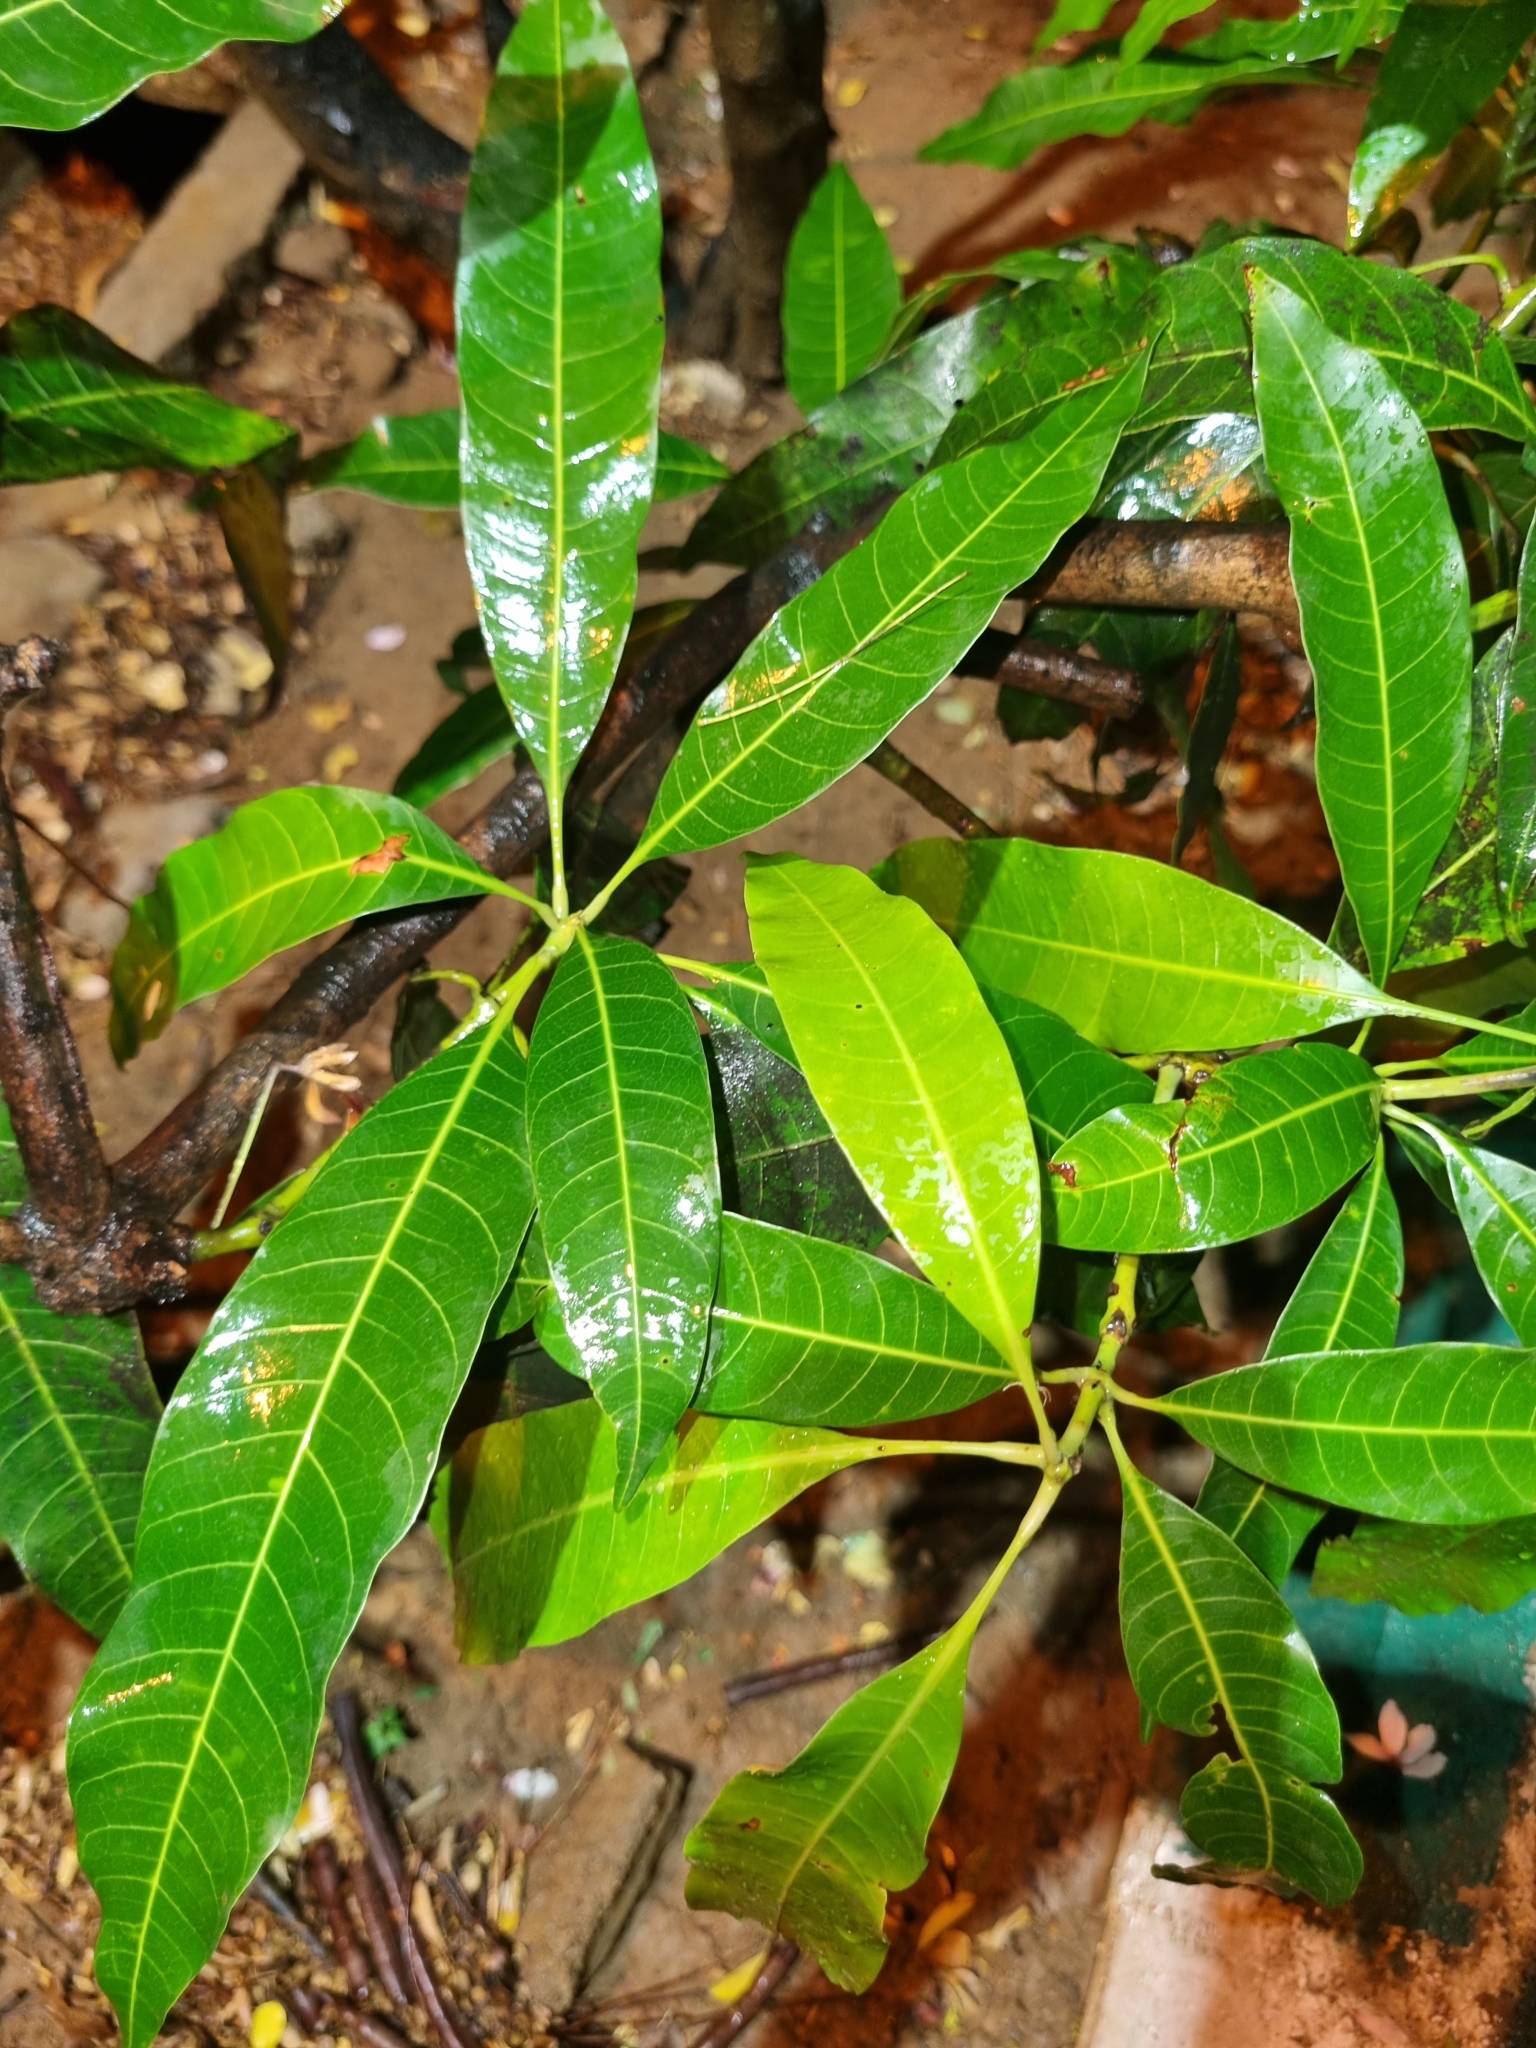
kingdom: Plantae
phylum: Tracheophyta
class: Magnoliopsida
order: Sapindales
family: Anacardiaceae
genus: Mangifera
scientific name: Mangifera indica
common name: Mango
